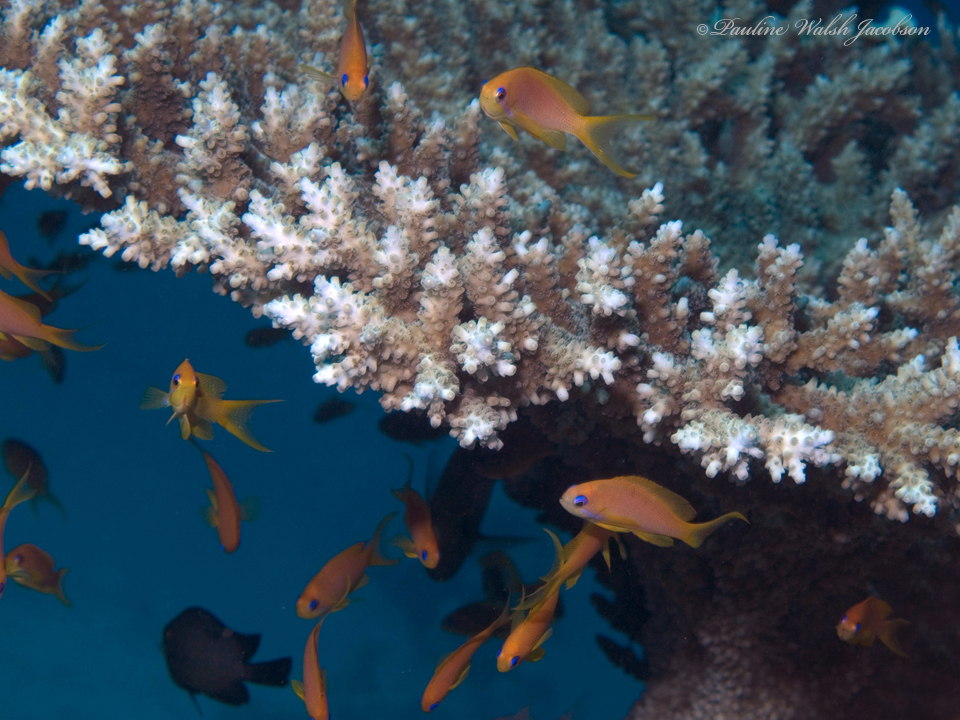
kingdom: Animalia
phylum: Chordata
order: Perciformes
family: Serranidae
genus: Pseudanthias
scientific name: Pseudanthias squamipinnis
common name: Scalefin anthias
